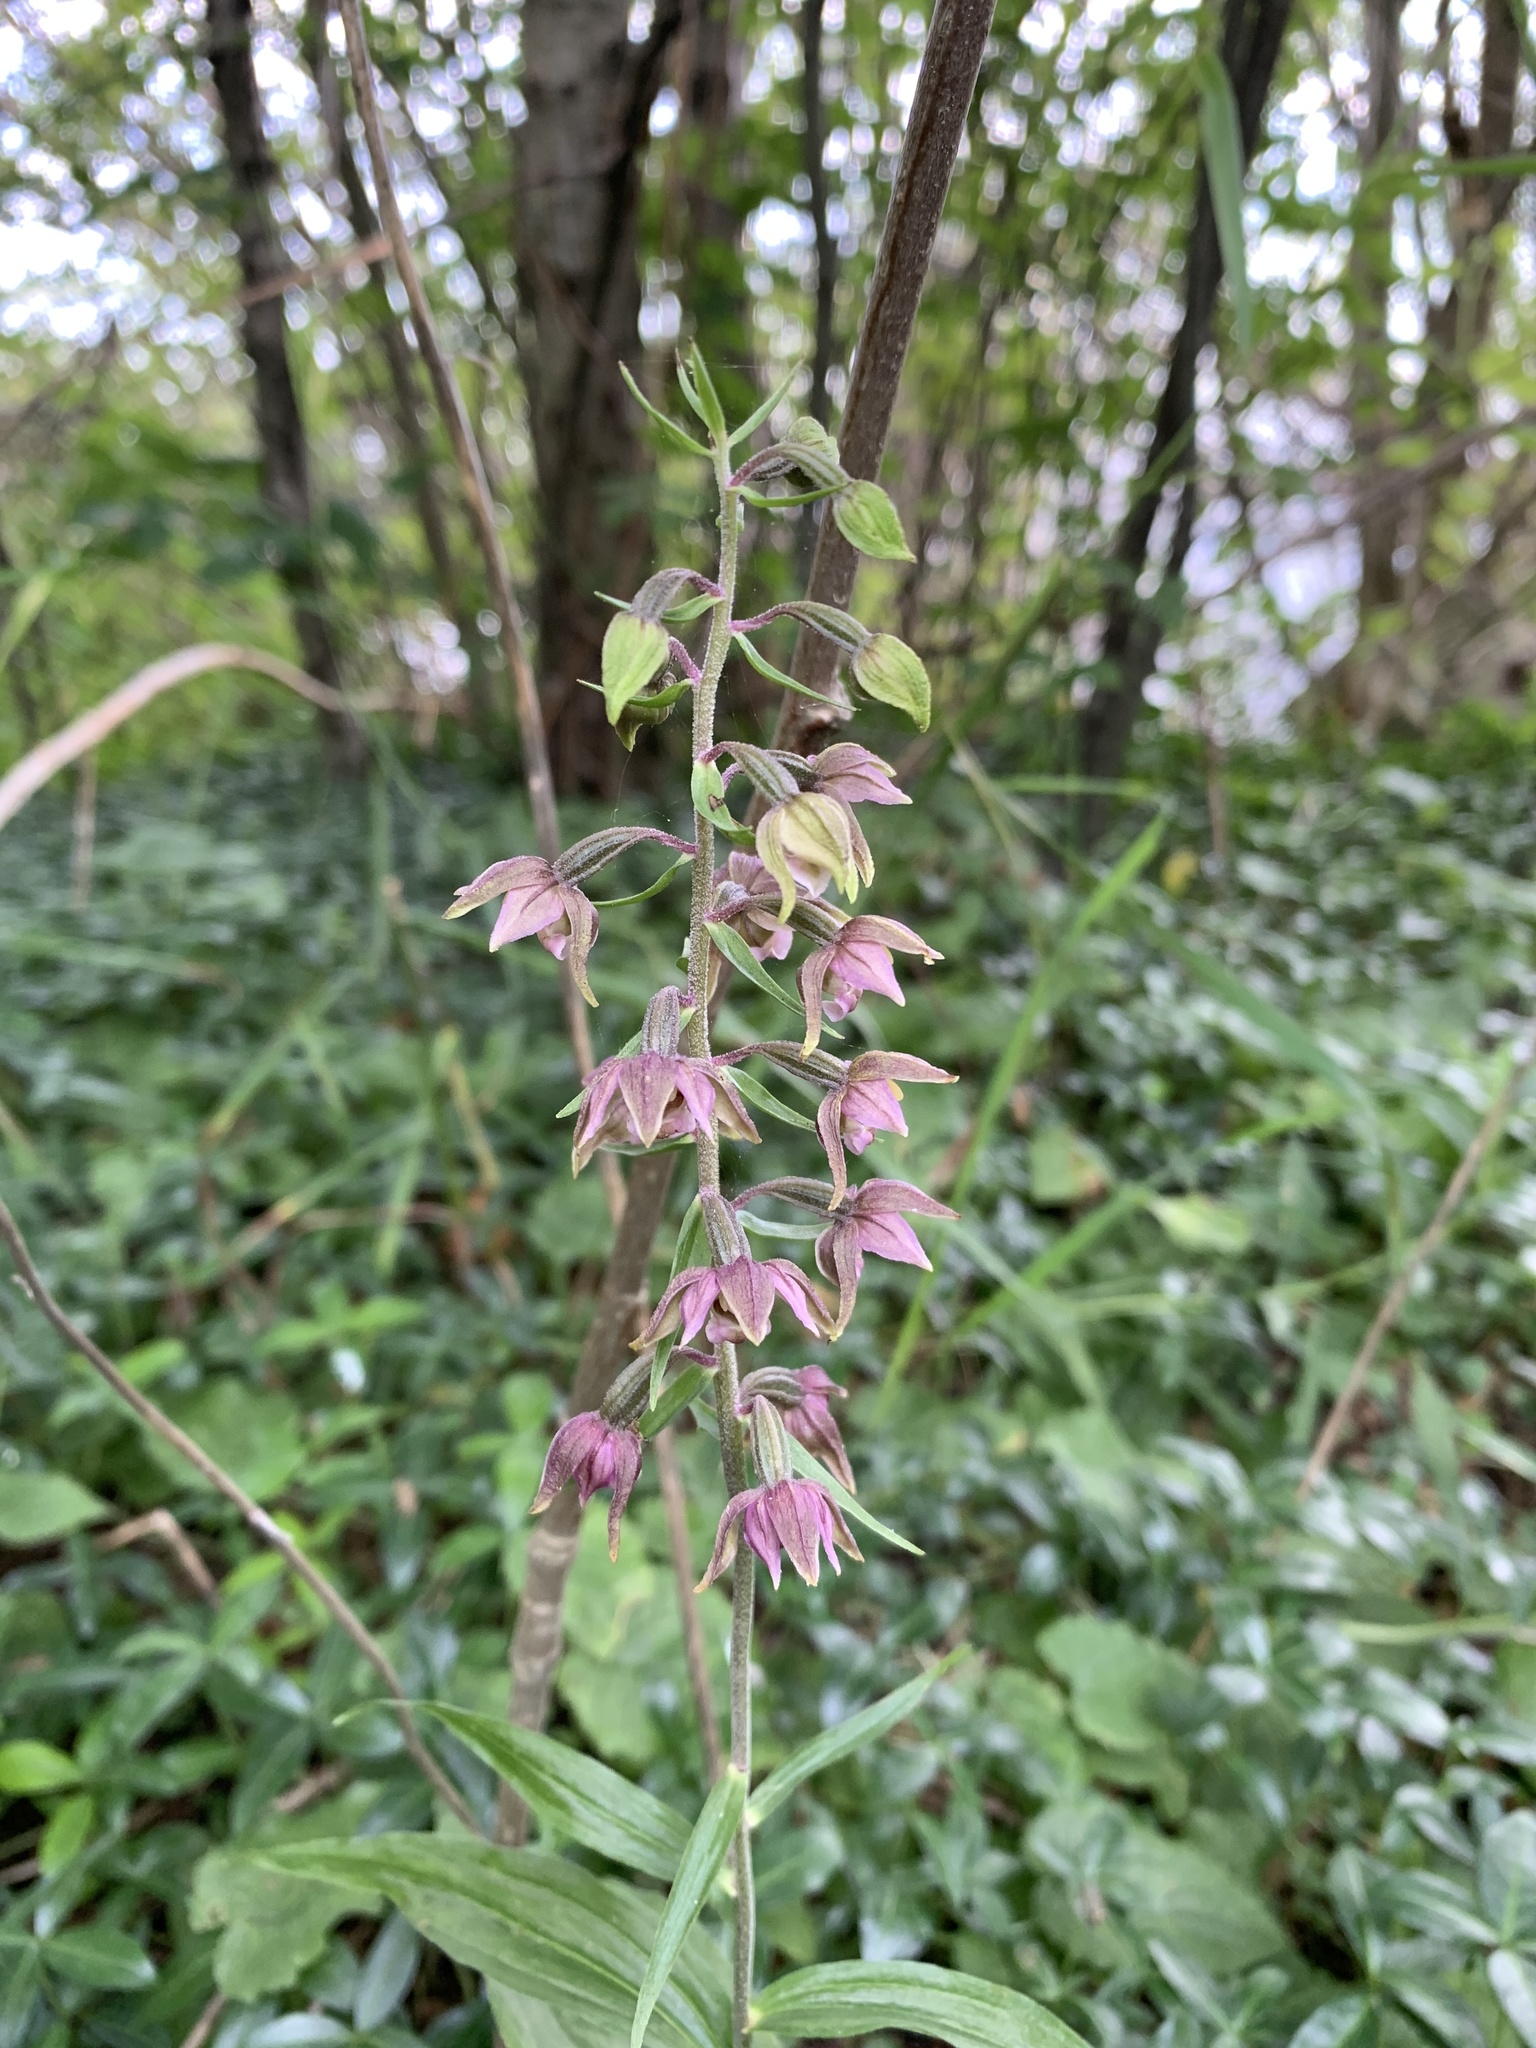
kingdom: Plantae
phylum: Tracheophyta
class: Liliopsida
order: Asparagales
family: Orchidaceae
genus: Epipactis
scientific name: Epipactis helleborine
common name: Broad-leaved helleborine
